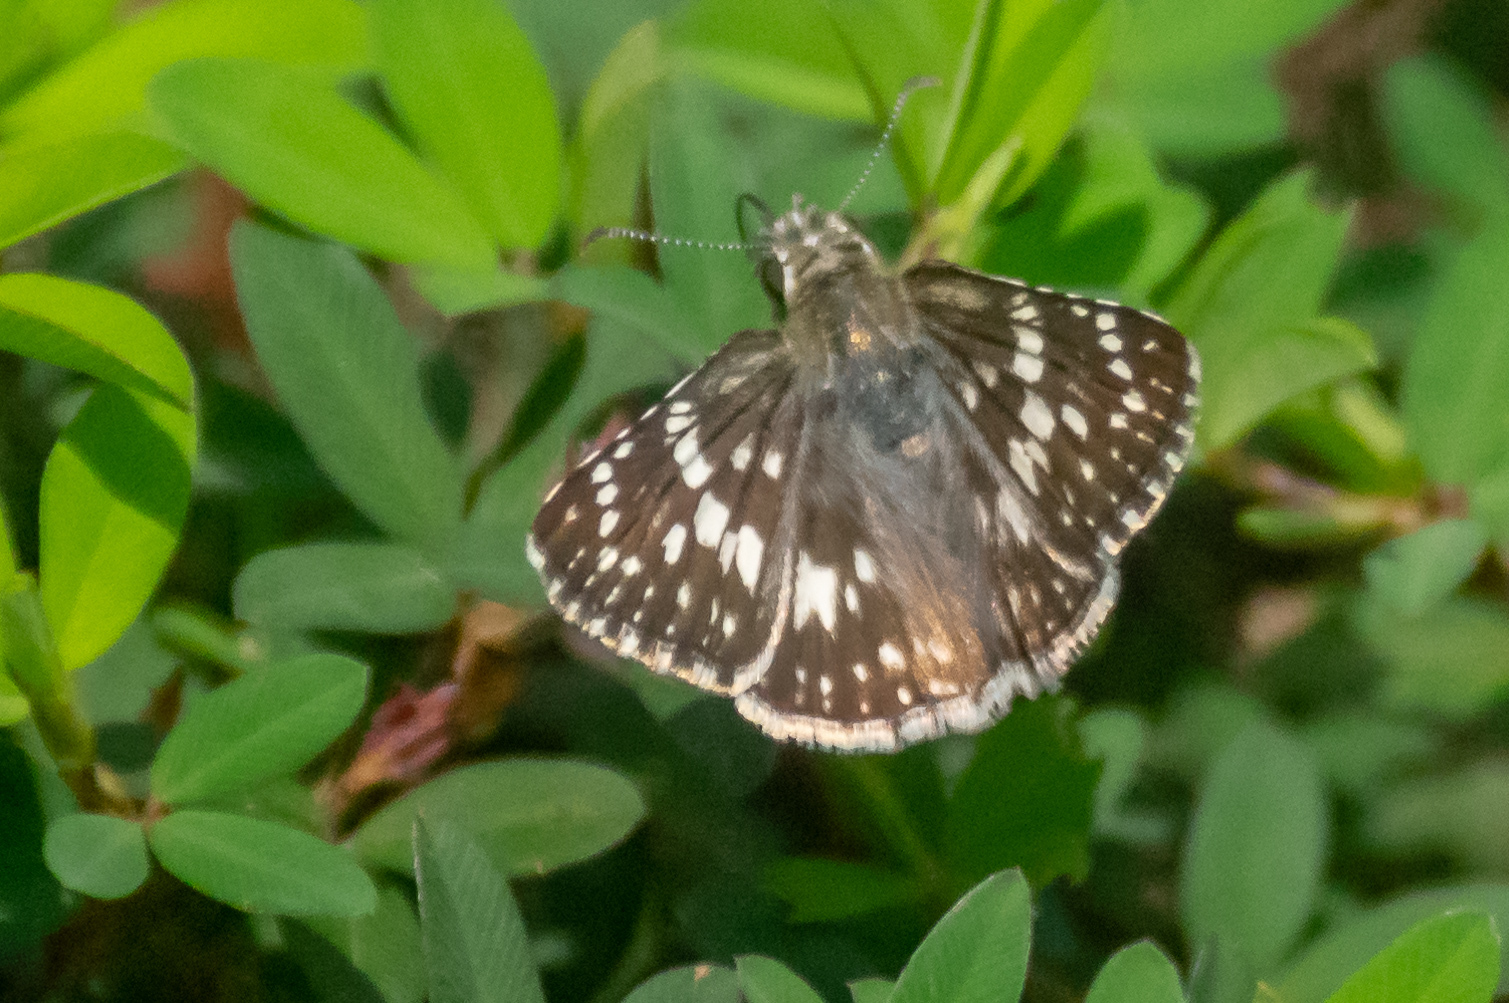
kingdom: Animalia
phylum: Arthropoda
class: Insecta
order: Lepidoptera
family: Hesperiidae
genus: Burnsius
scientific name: Burnsius communis
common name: Common checkered-skipper
